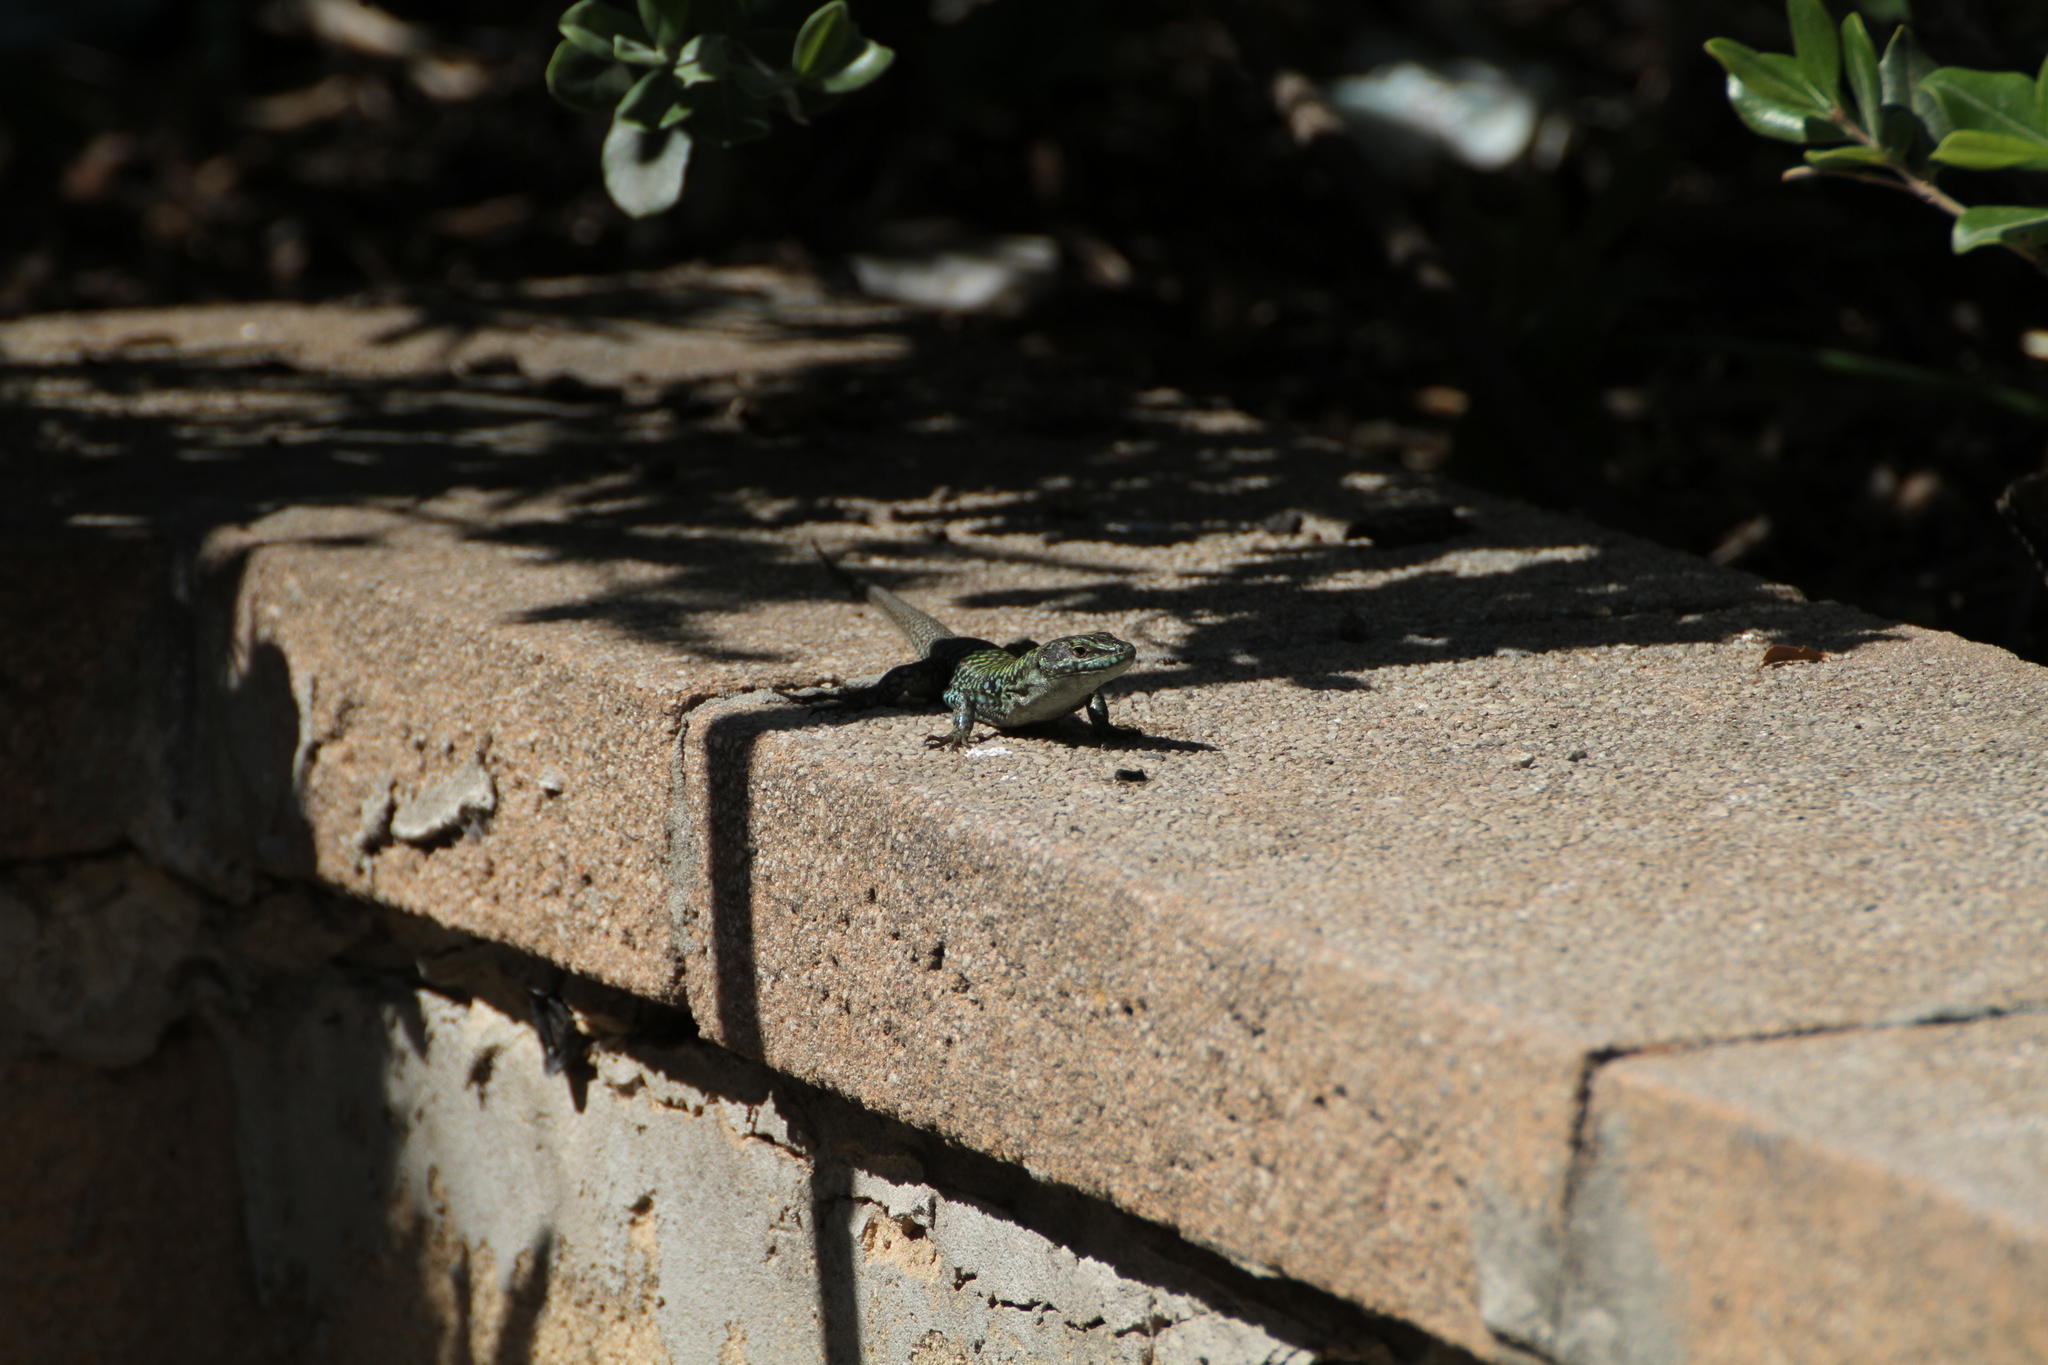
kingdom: Animalia
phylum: Chordata
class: Squamata
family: Lacertidae
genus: Podarcis
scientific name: Podarcis siculus
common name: Italian wall lizard
